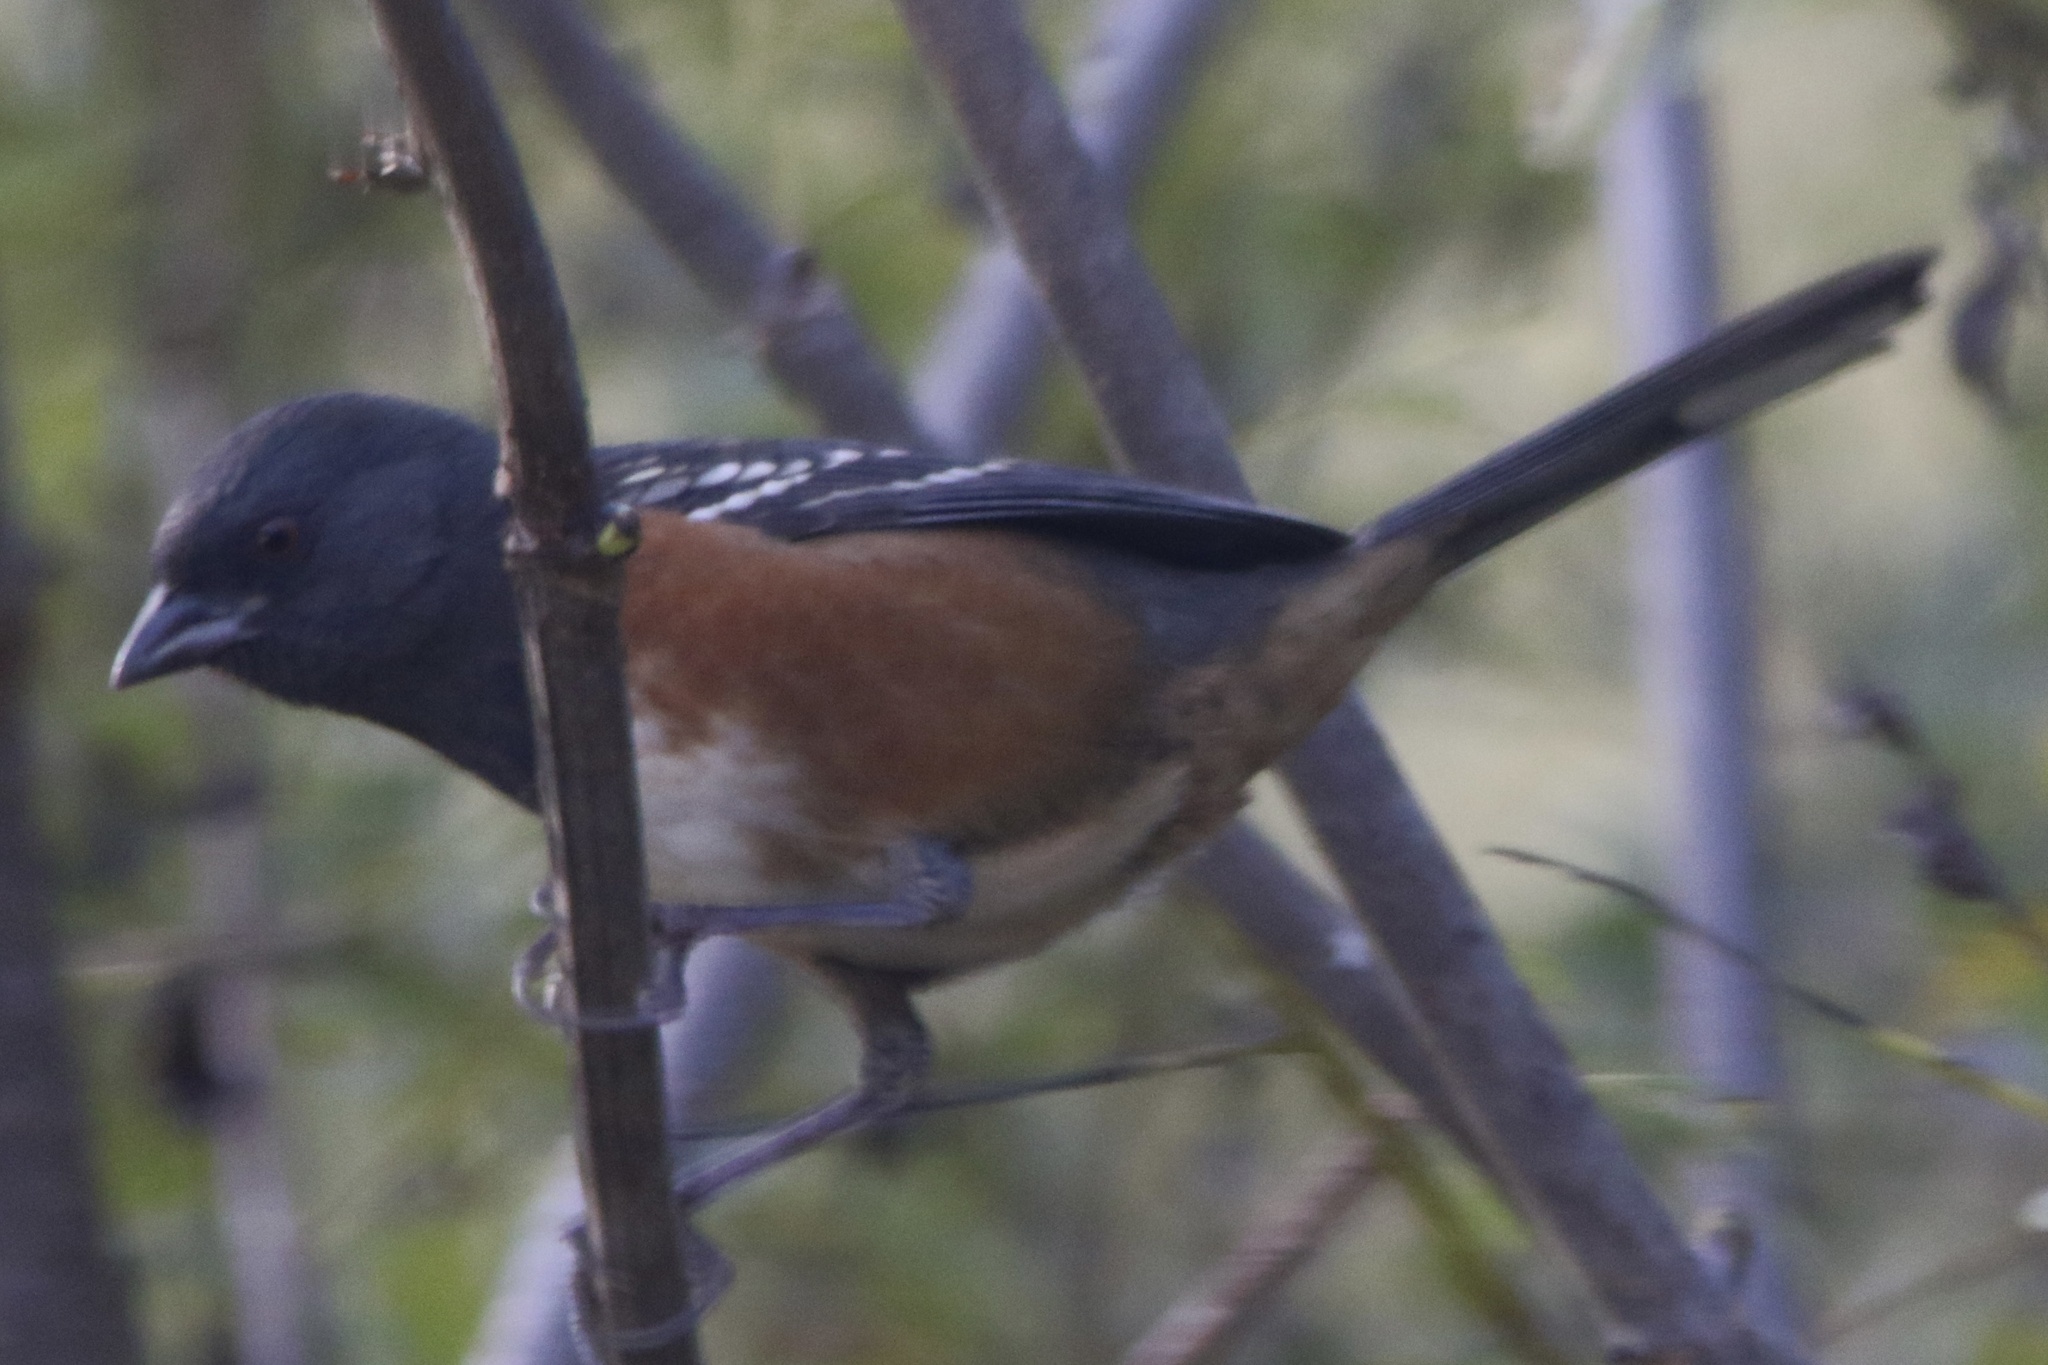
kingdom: Animalia
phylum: Chordata
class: Aves
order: Passeriformes
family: Passerellidae
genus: Pipilo
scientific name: Pipilo maculatus
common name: Spotted towhee
